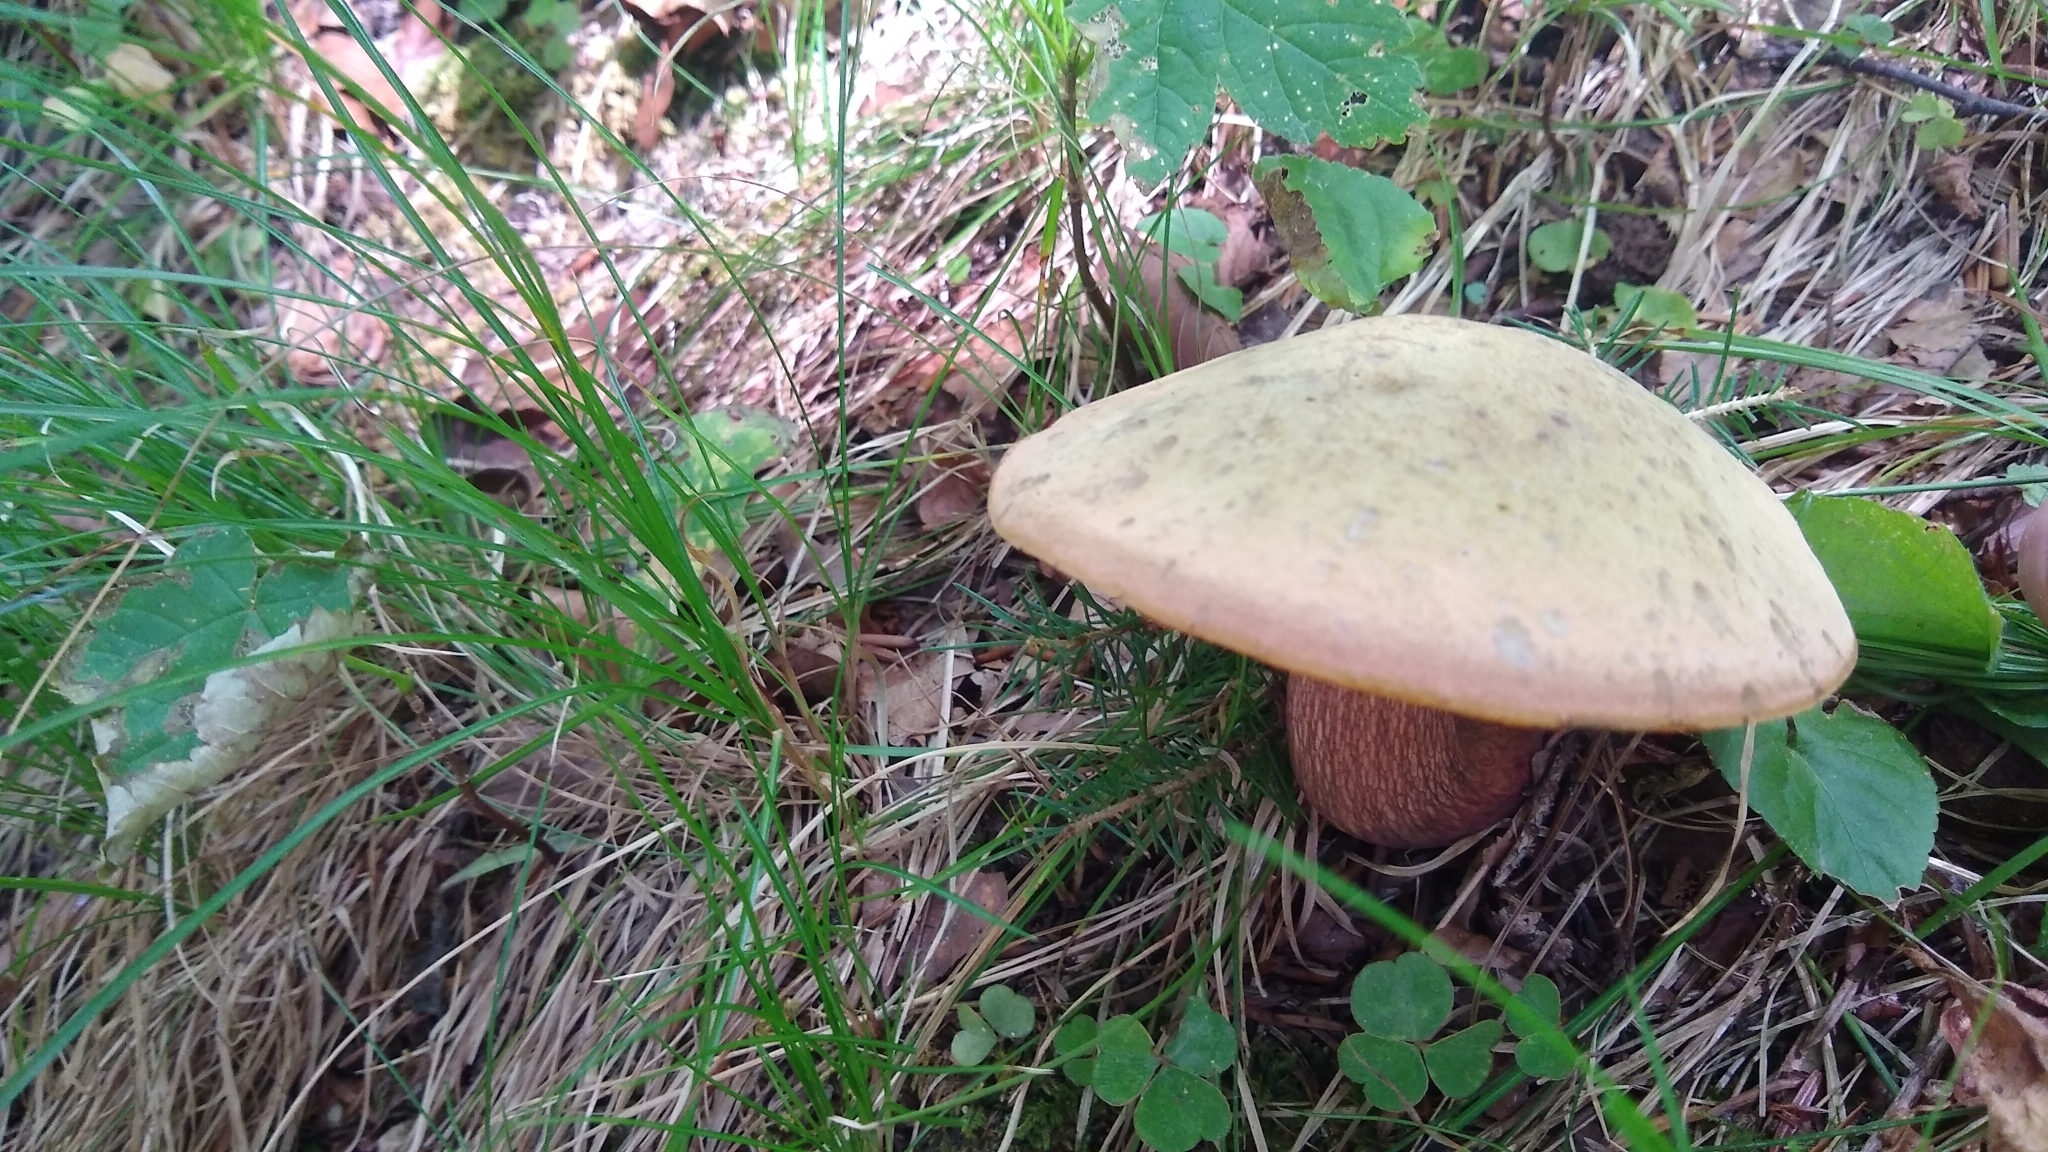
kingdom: Fungi
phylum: Basidiomycota
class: Agaricomycetes
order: Boletales
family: Boletaceae
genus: Suillellus
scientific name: Suillellus luridus
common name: Lurid bolete
